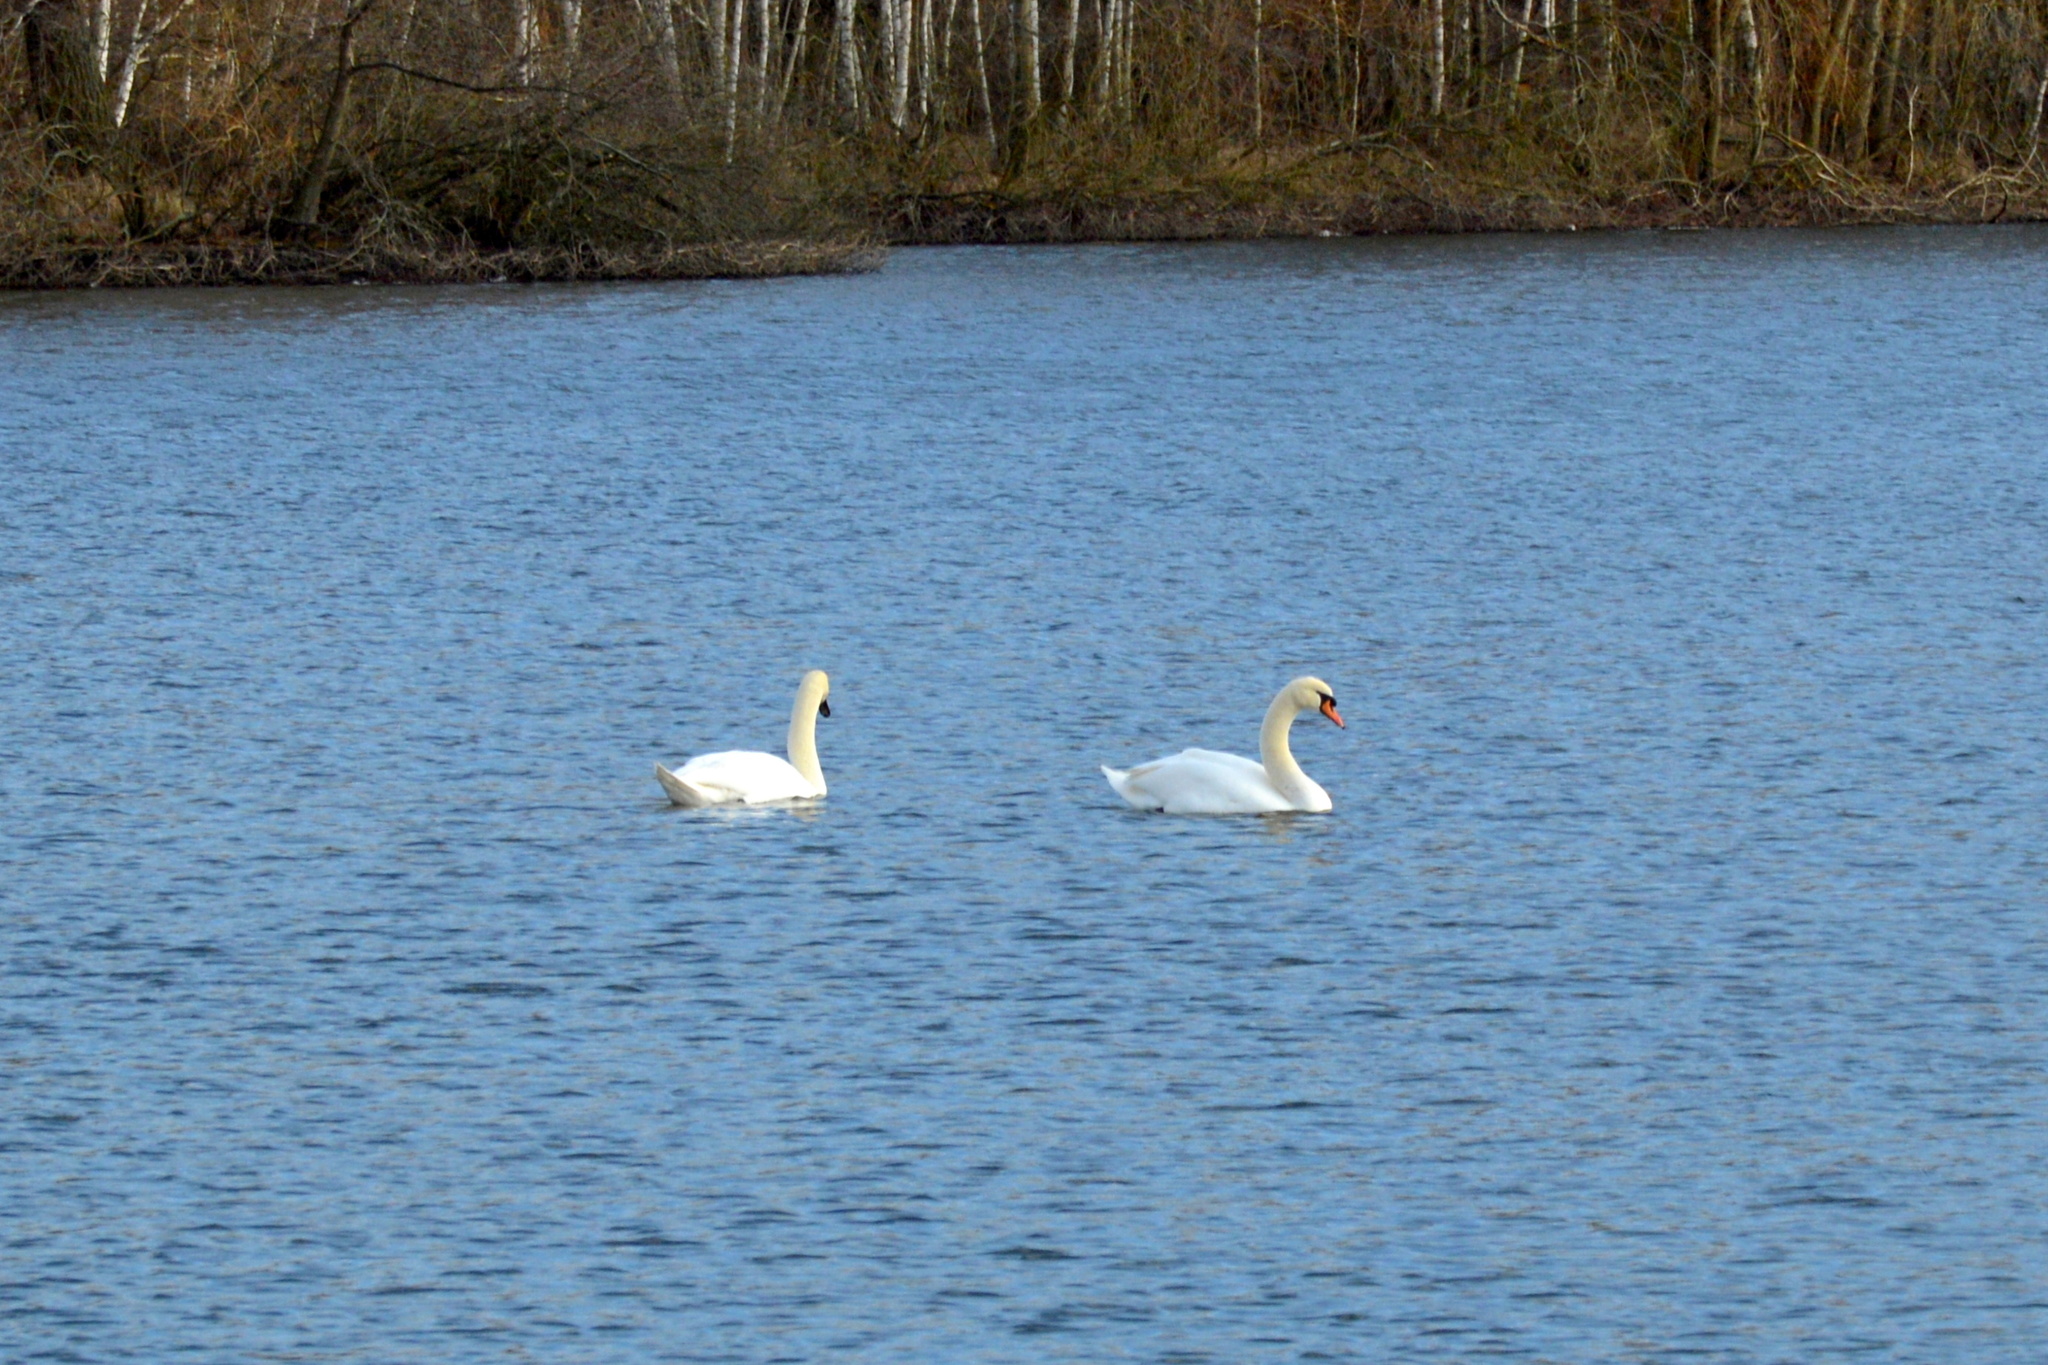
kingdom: Animalia
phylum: Chordata
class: Aves
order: Anseriformes
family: Anatidae
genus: Cygnus
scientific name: Cygnus olor
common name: Mute swan
